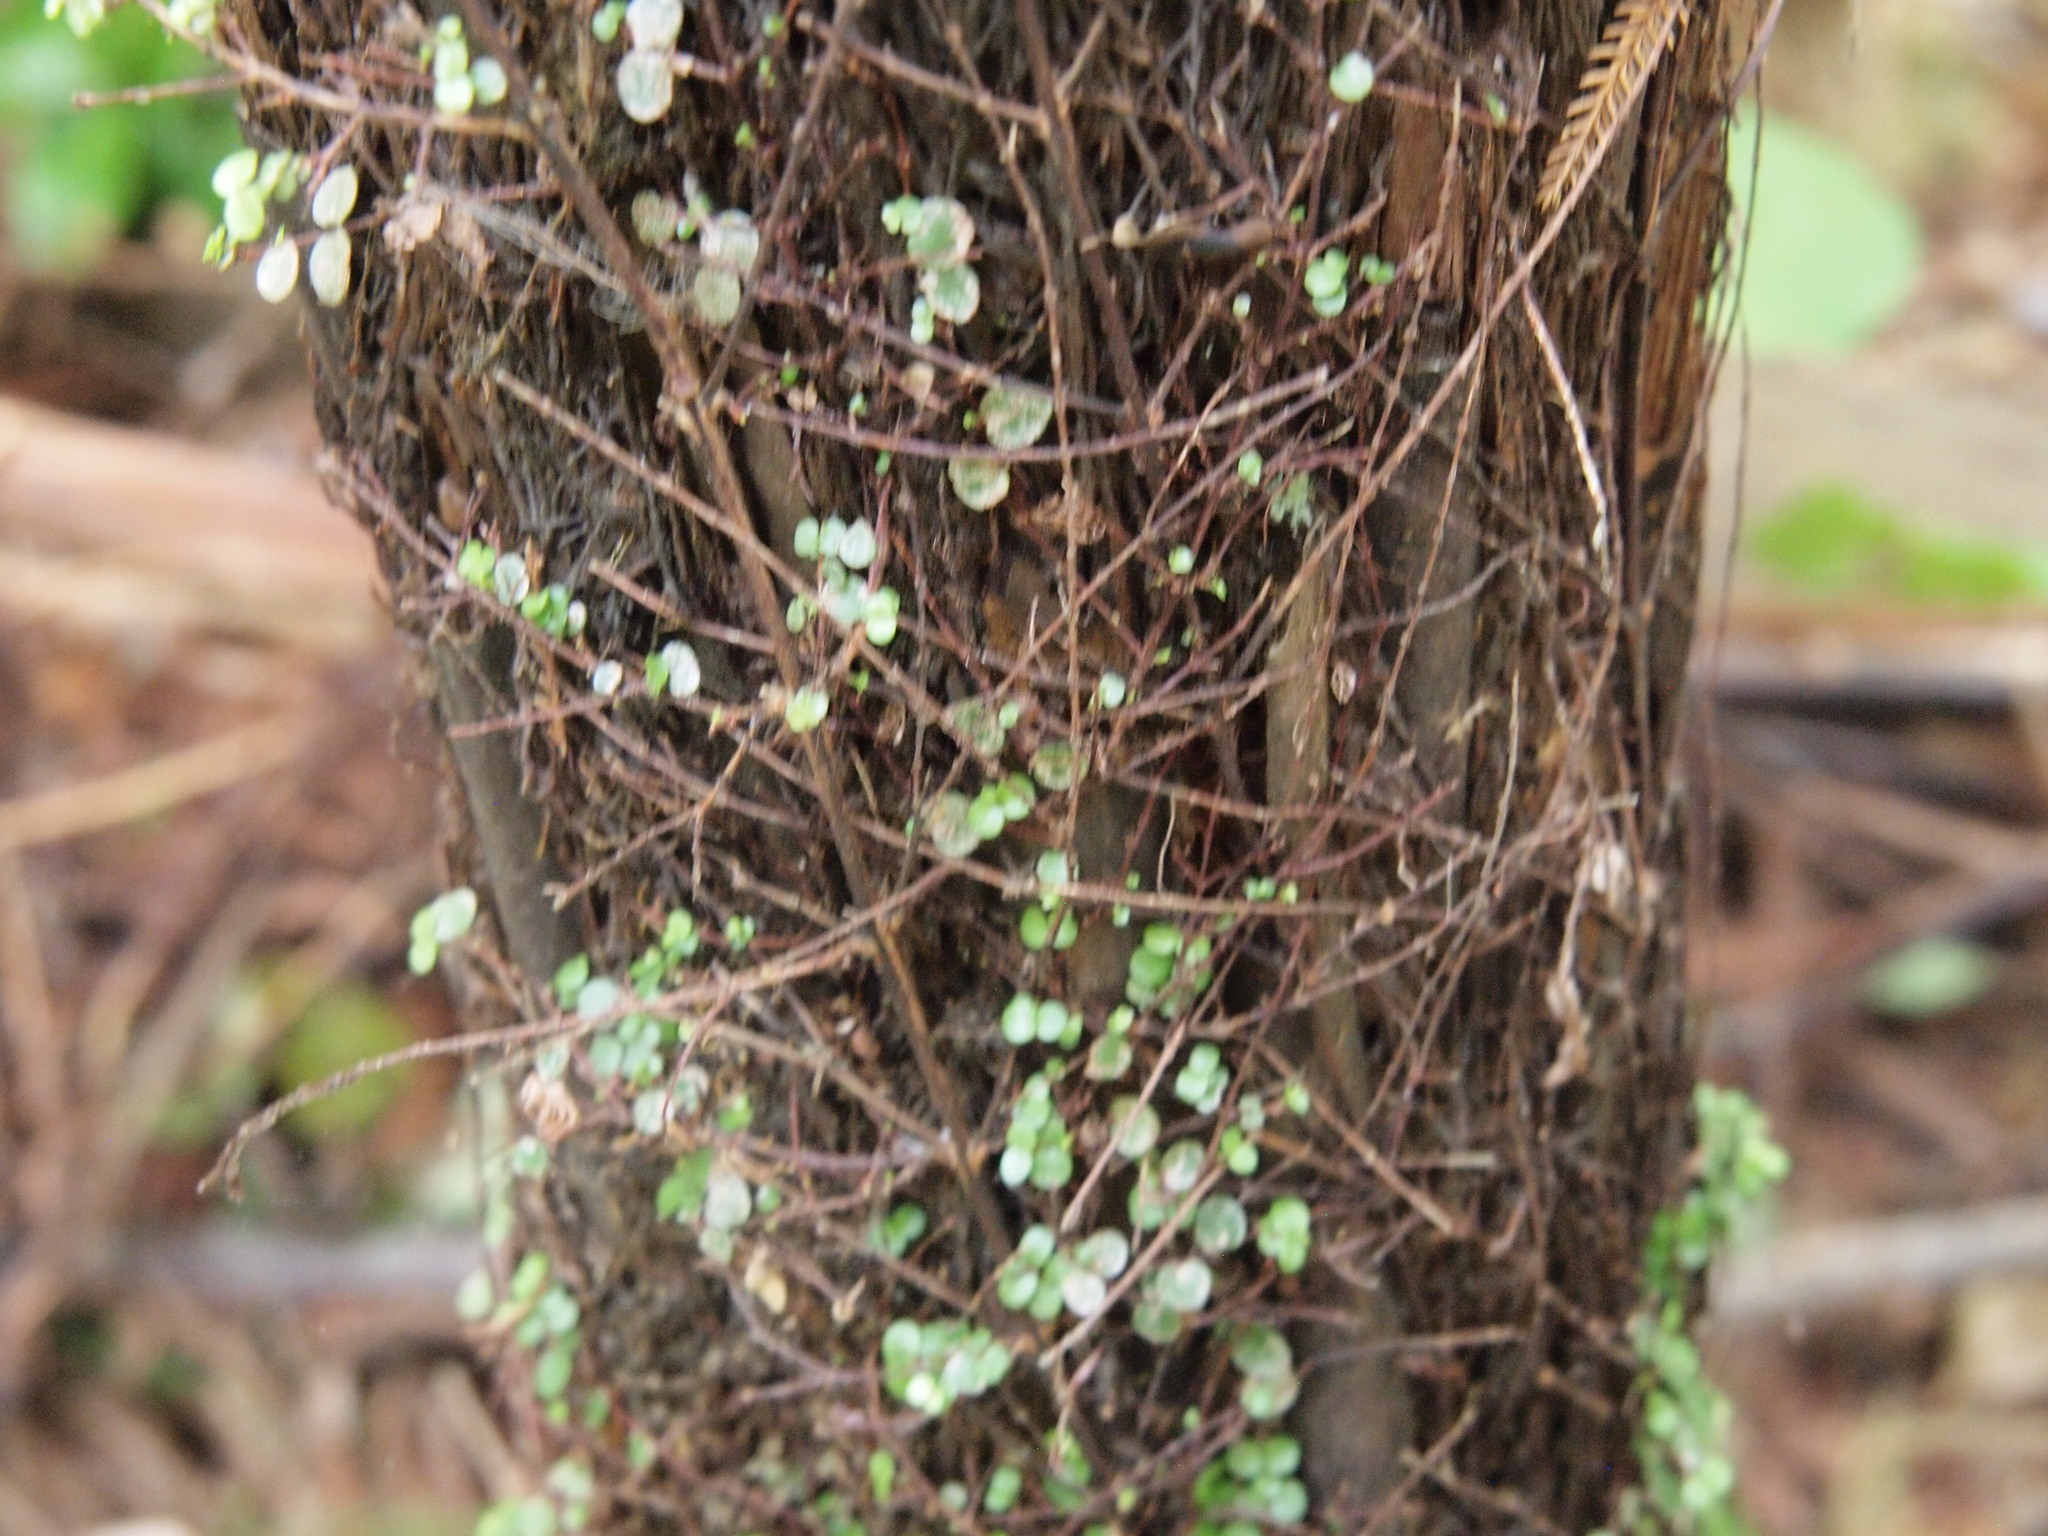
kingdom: Plantae
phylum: Tracheophyta
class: Magnoliopsida
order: Myrtales
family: Myrtaceae
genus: Metrosideros
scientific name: Metrosideros diffusa
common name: Small ratavine
